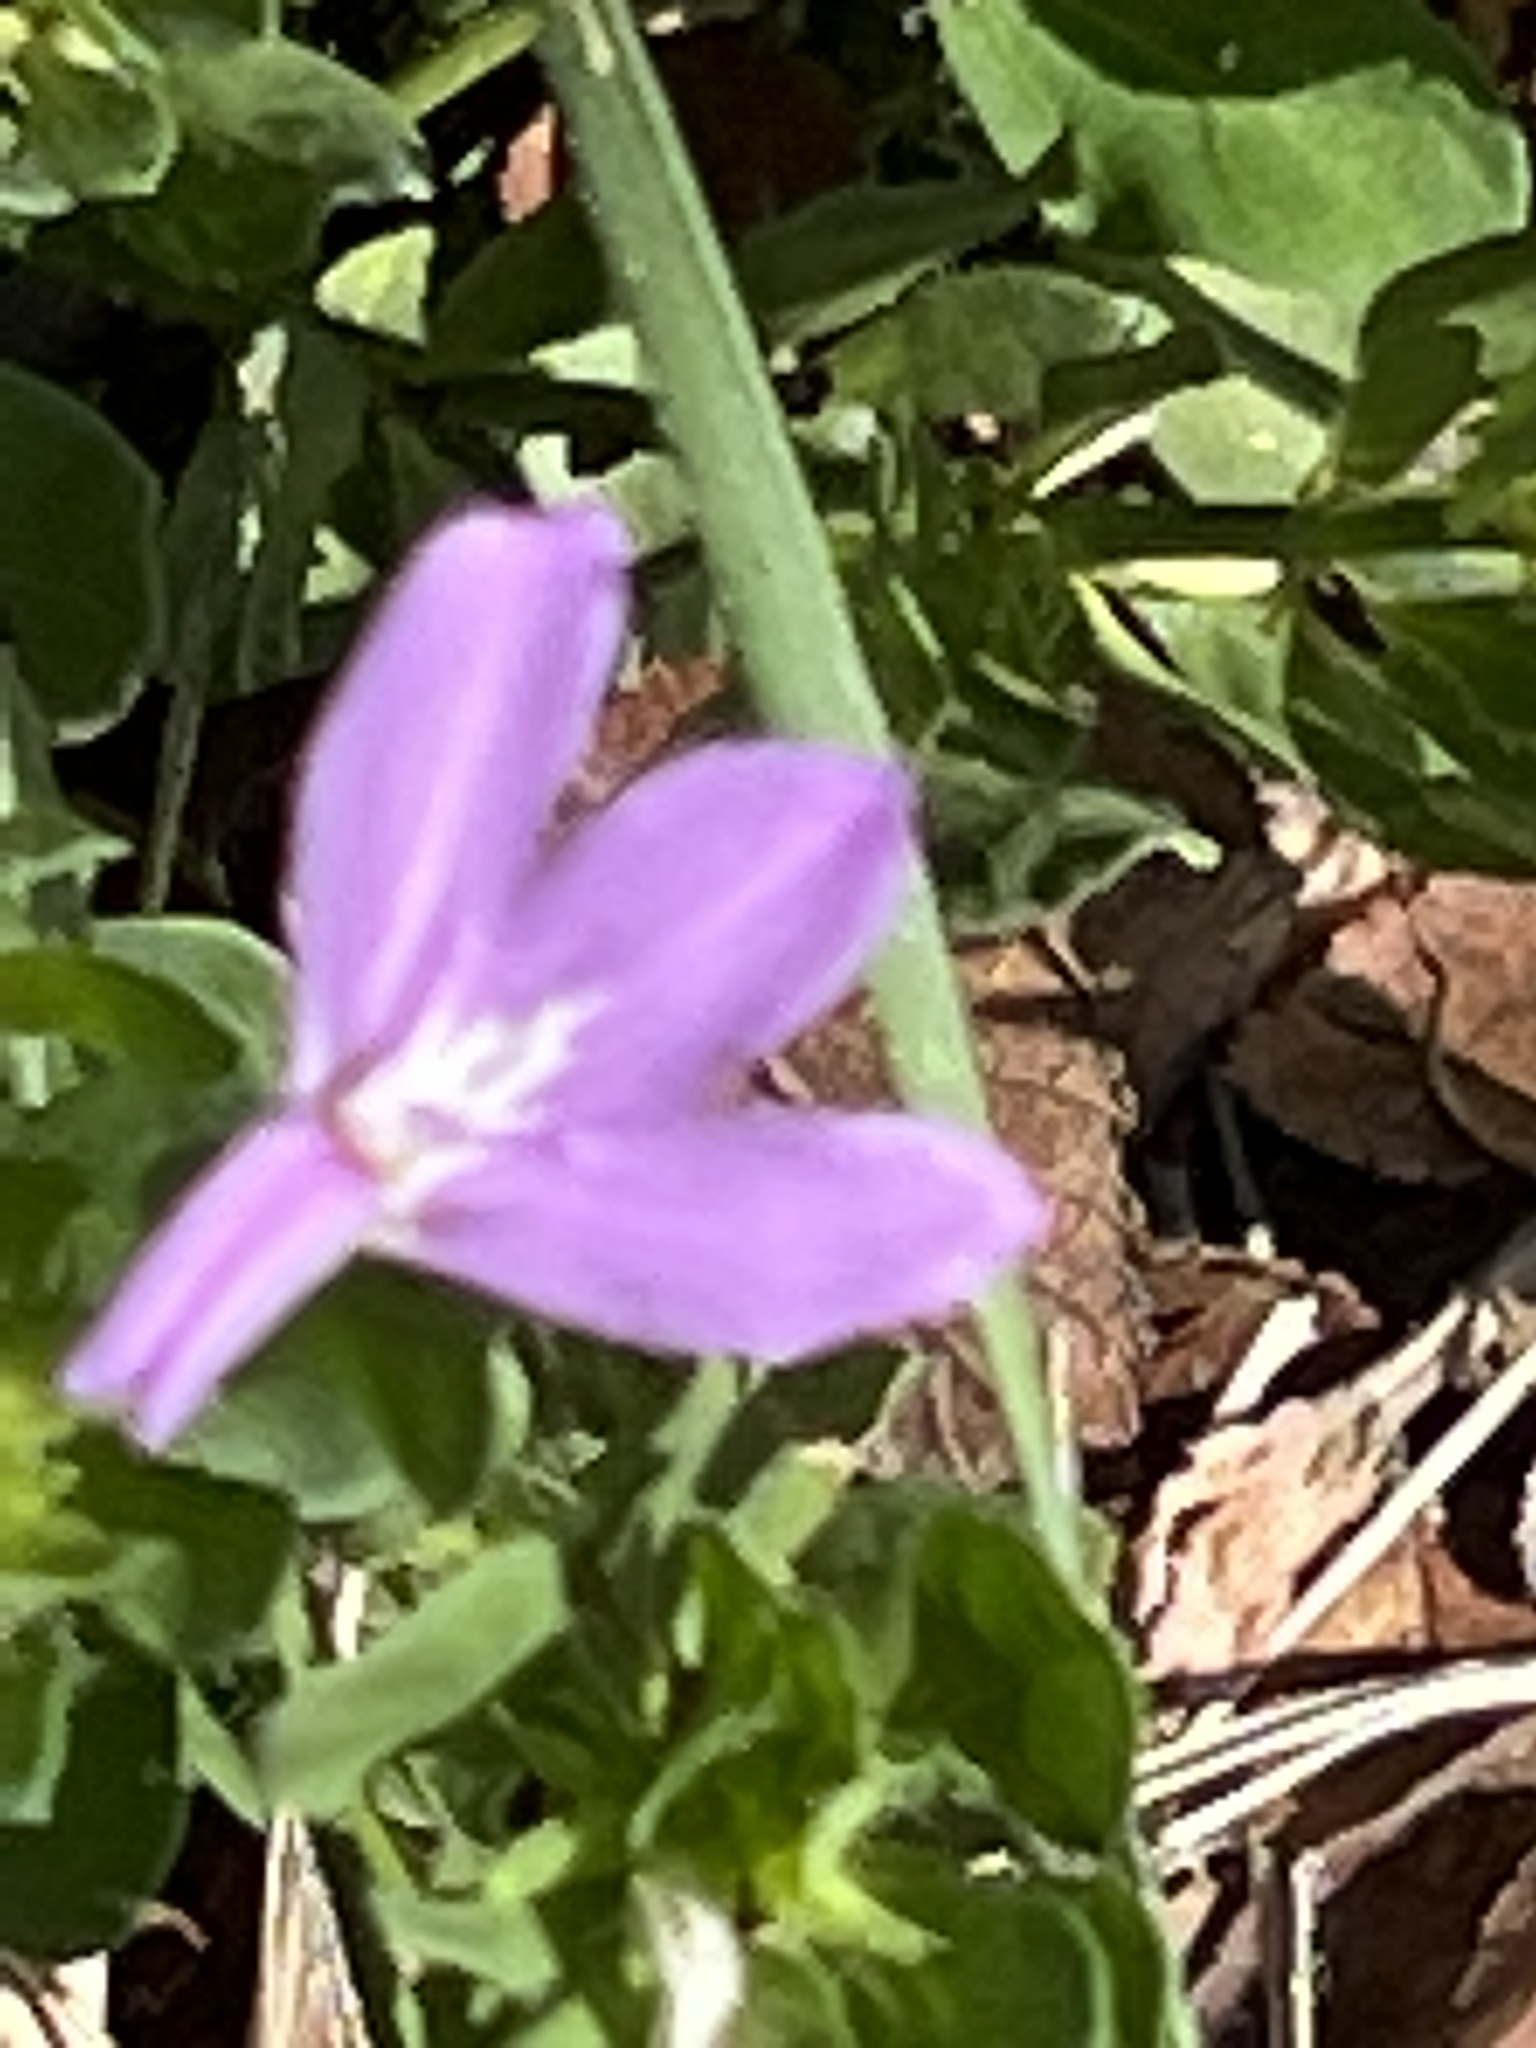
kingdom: Plantae
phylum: Tracheophyta
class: Magnoliopsida
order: Lamiales
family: Acanthaceae
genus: Justicia
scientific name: Justicia pilosella
